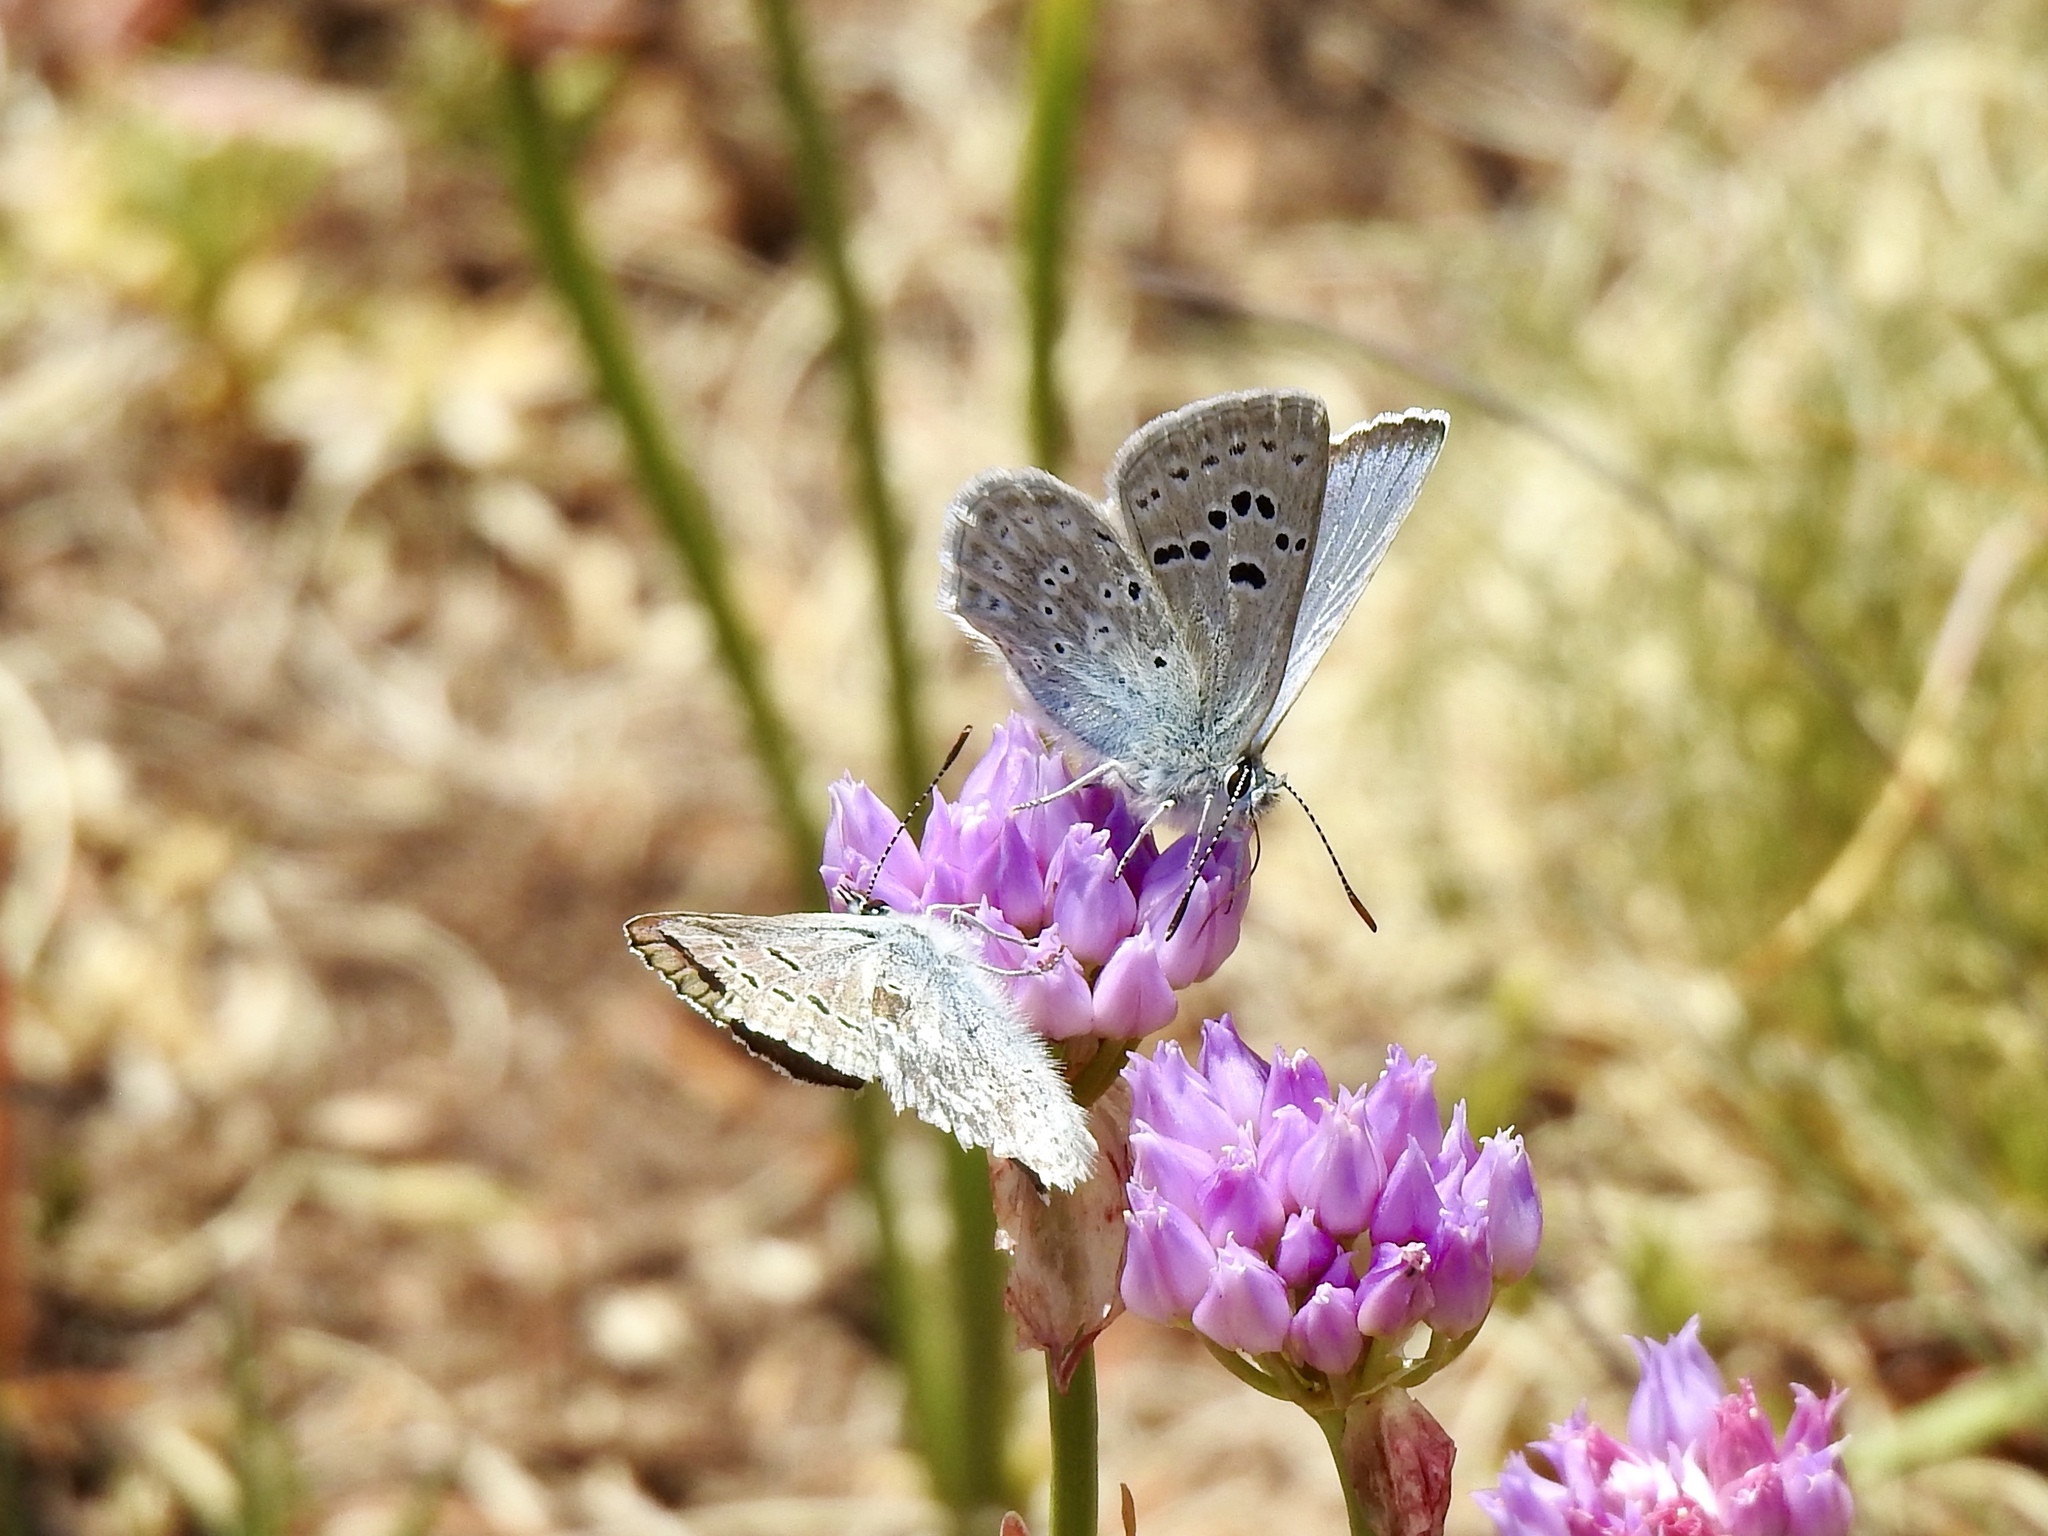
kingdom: Animalia
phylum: Arthropoda
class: Insecta
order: Lepidoptera
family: Lycaenidae
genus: Icaricia
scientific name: Icaricia icarioides
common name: Boisduval's blue
